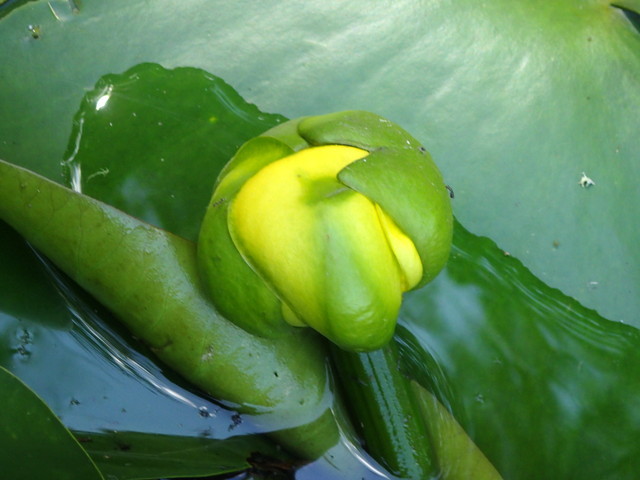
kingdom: Plantae
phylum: Tracheophyta
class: Magnoliopsida
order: Nymphaeales
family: Nymphaeaceae
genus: Nuphar
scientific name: Nuphar advena
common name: Spatter-dock
